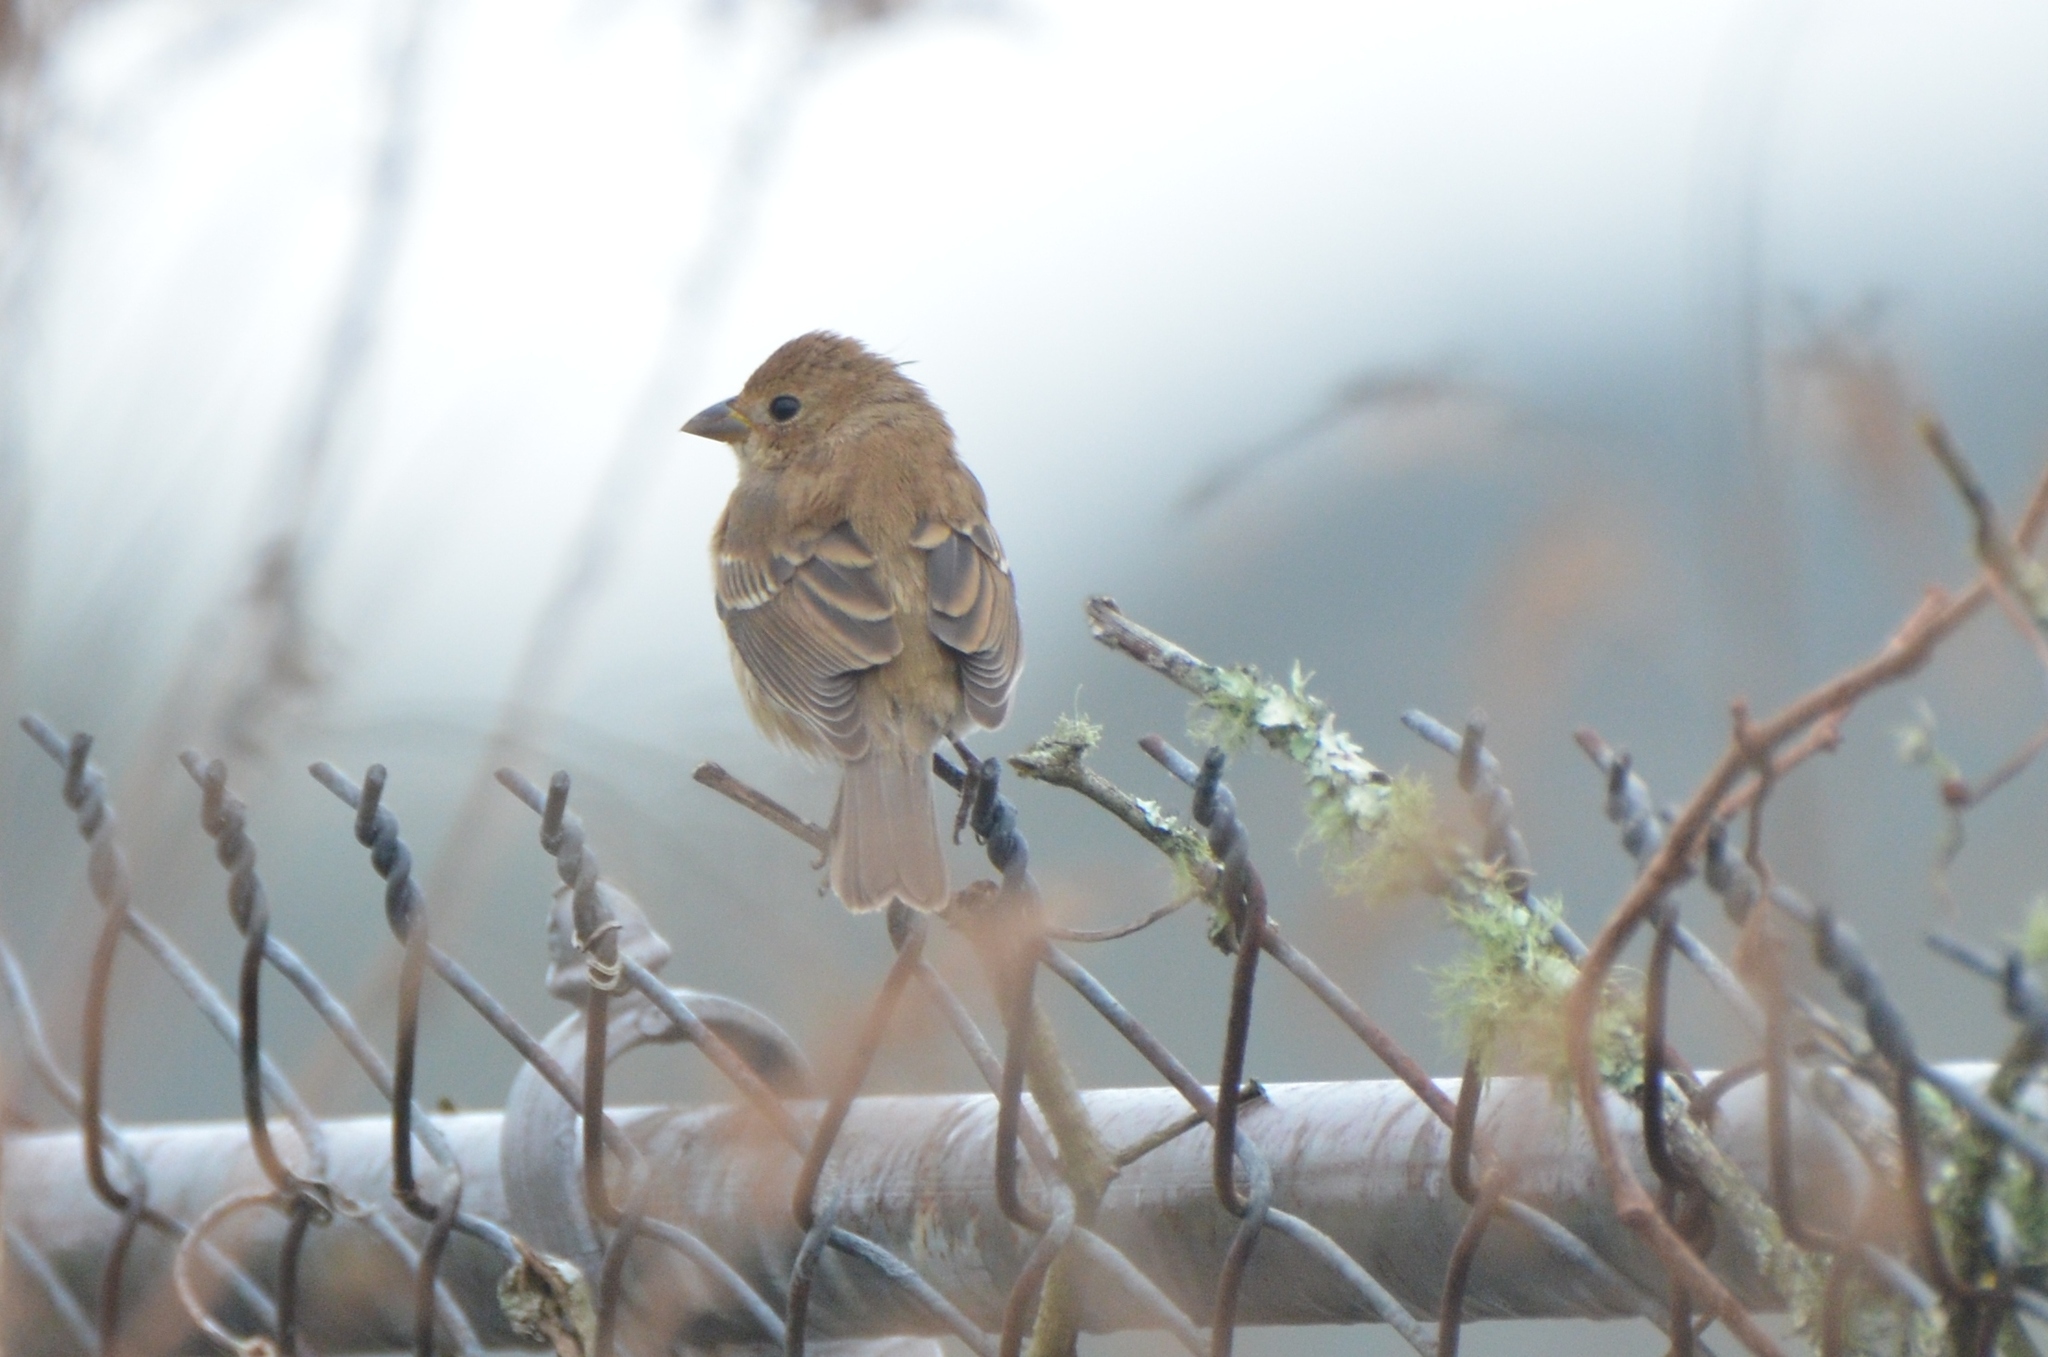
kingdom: Animalia
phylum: Chordata
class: Aves
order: Passeriformes
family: Cardinalidae
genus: Passerina
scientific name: Passerina cyanea
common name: Indigo bunting
